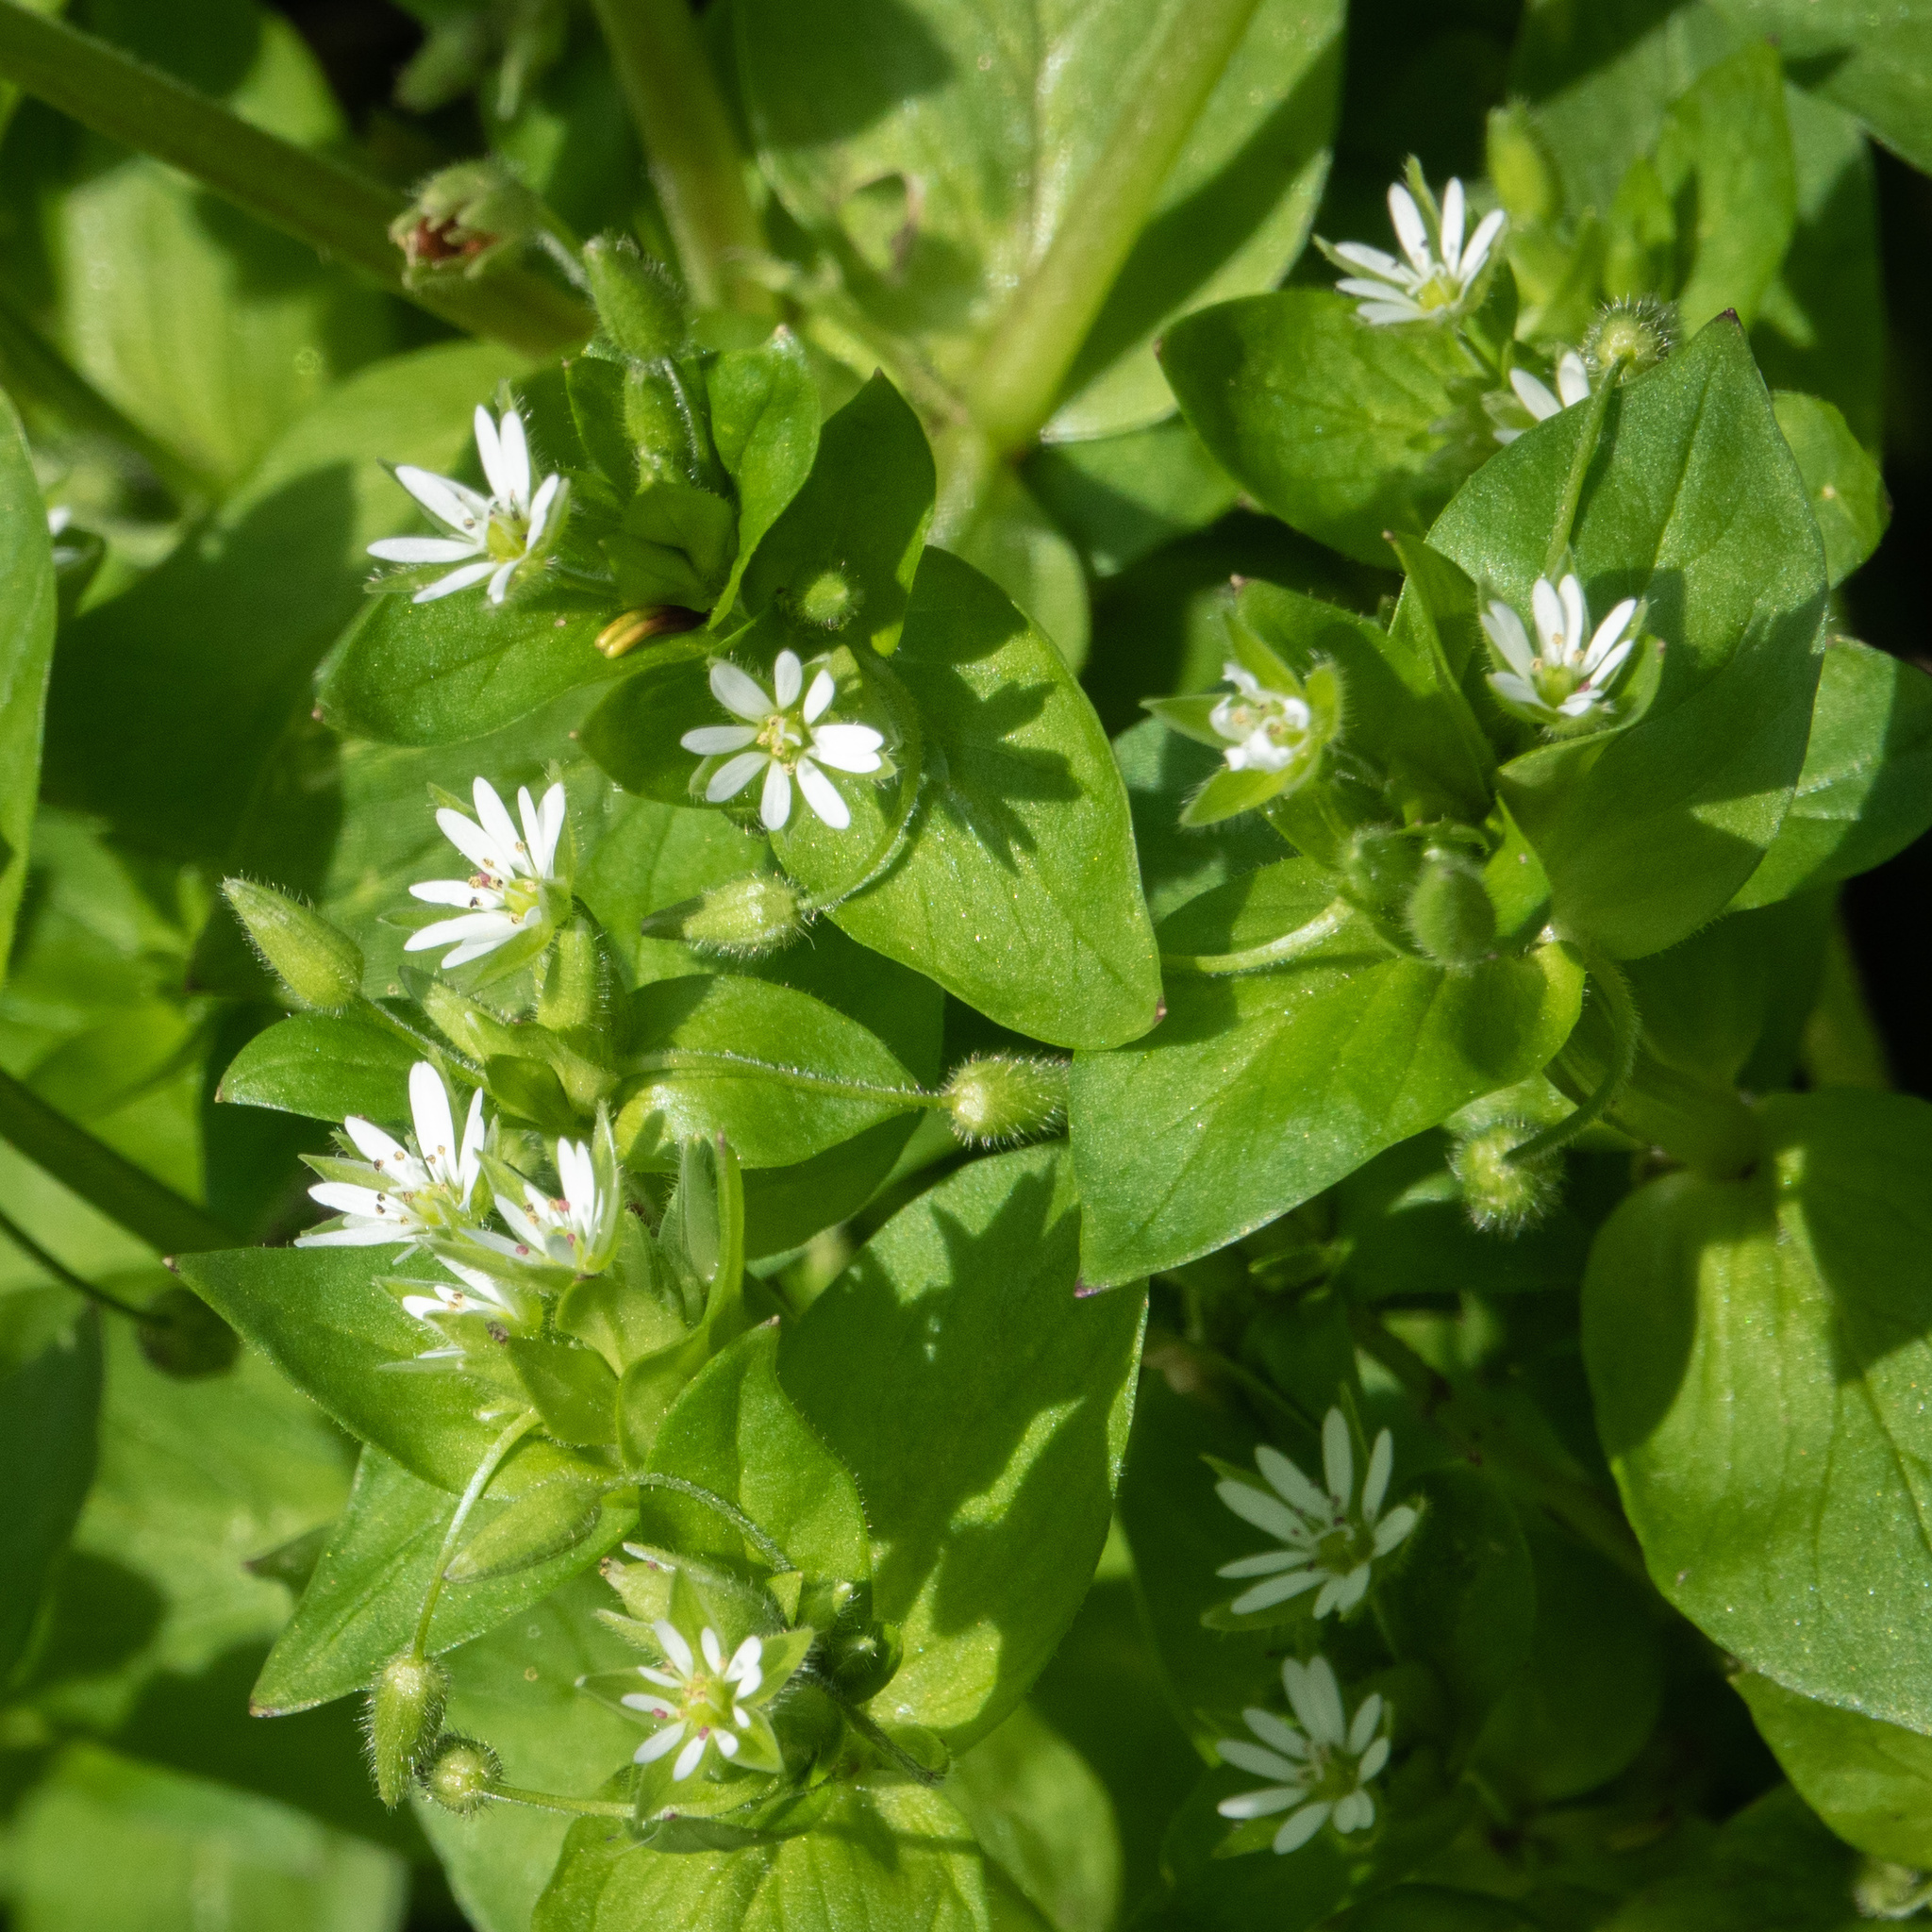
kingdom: Plantae
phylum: Tracheophyta
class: Magnoliopsida
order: Caryophyllales
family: Caryophyllaceae
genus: Stellaria
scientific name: Stellaria media
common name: Common chickweed
